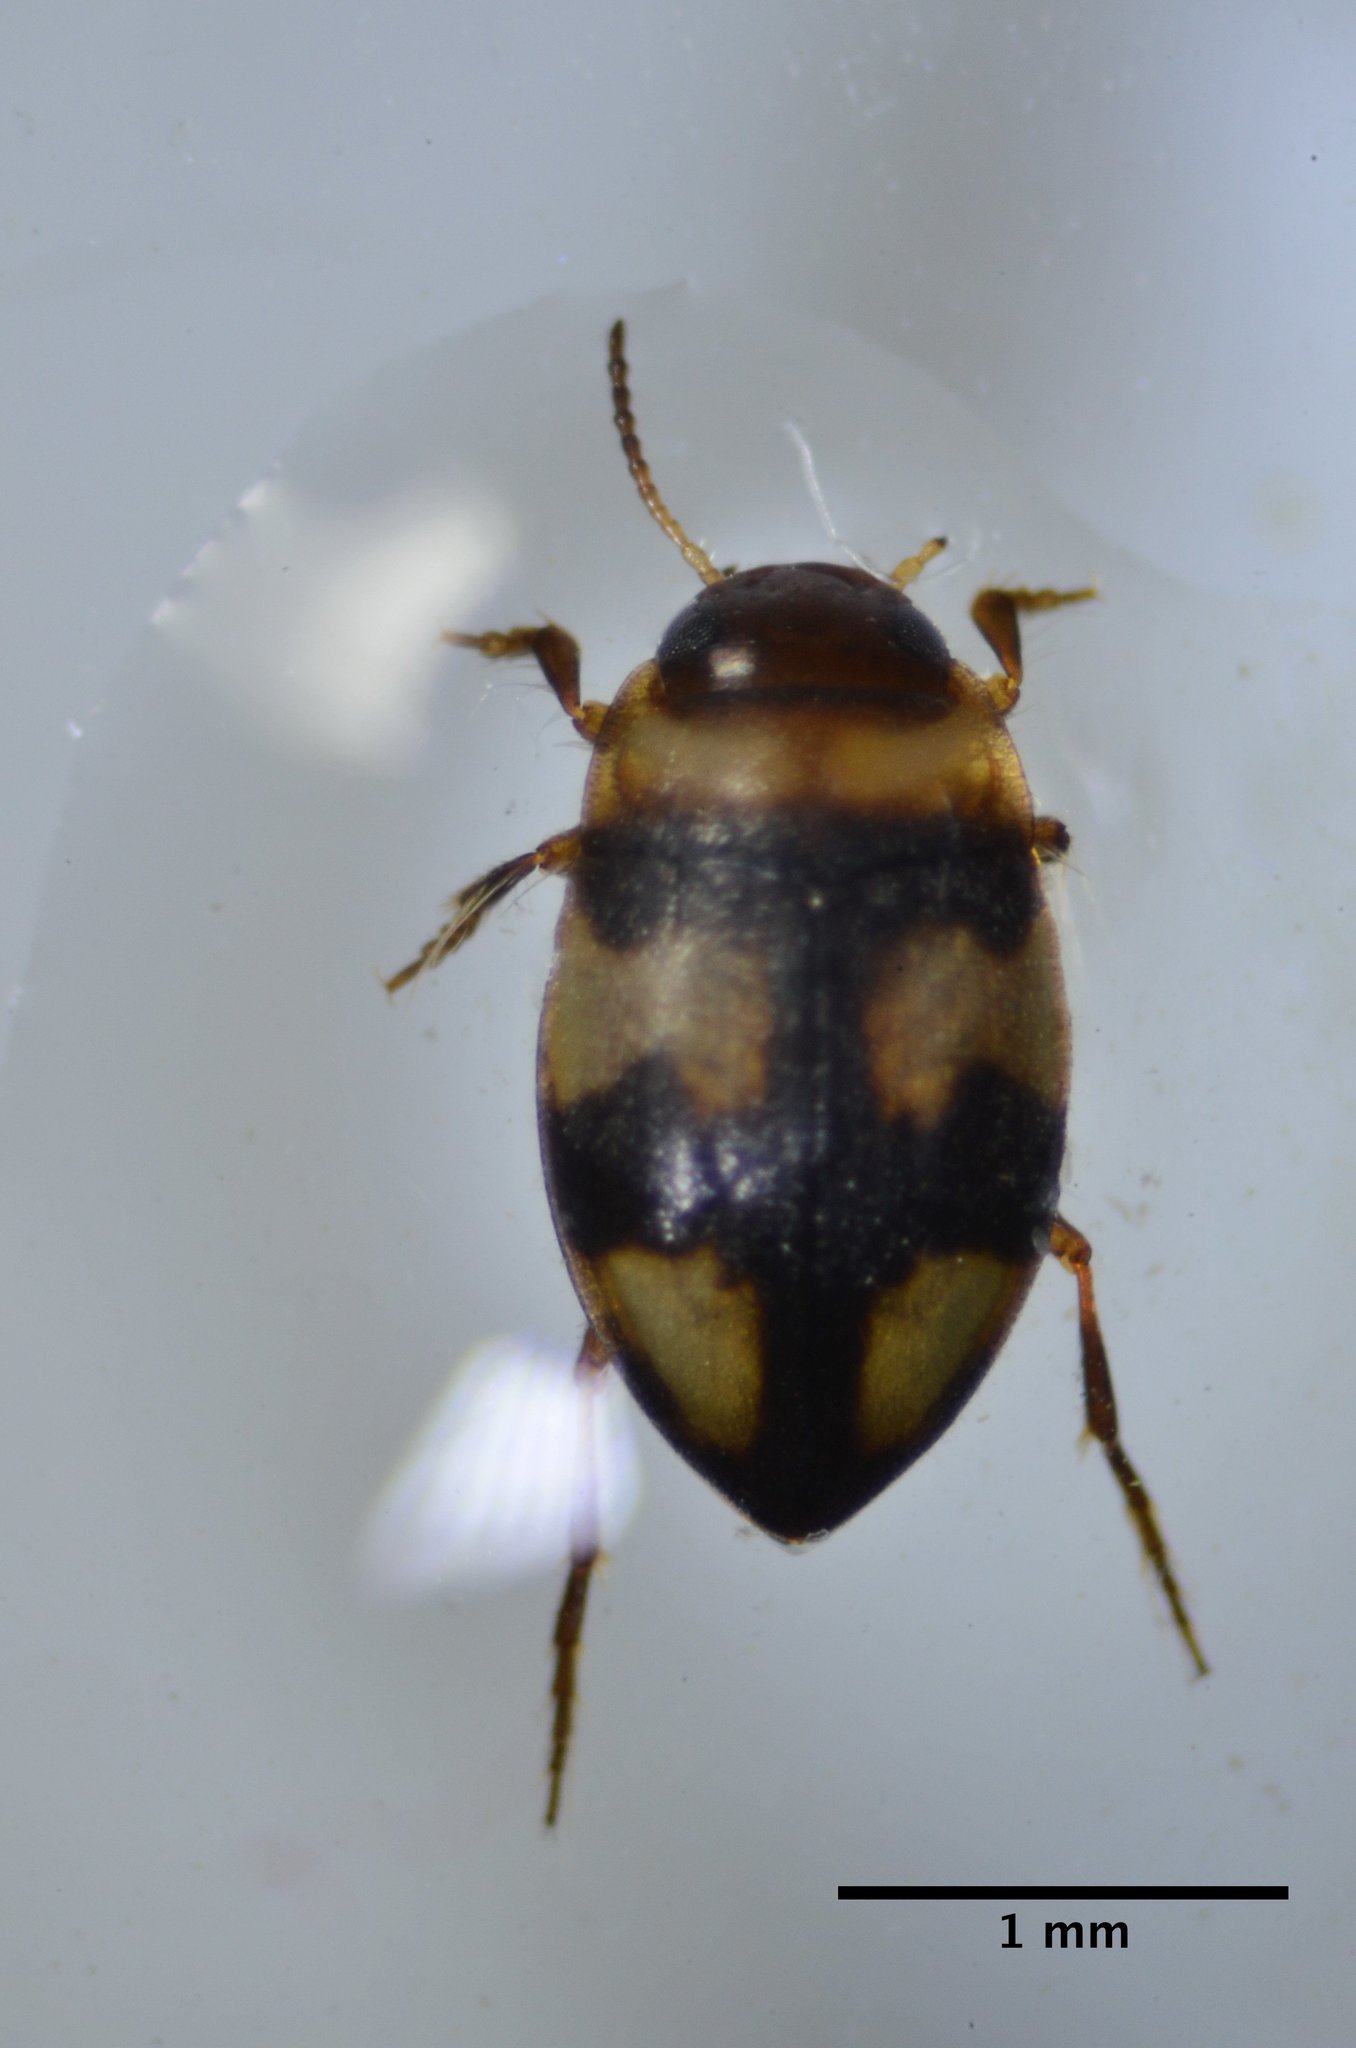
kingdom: Animalia
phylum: Arthropoda
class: Insecta
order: Coleoptera
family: Dytiscidae
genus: Neoclypeodytes
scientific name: Neoclypeodytes leachi
